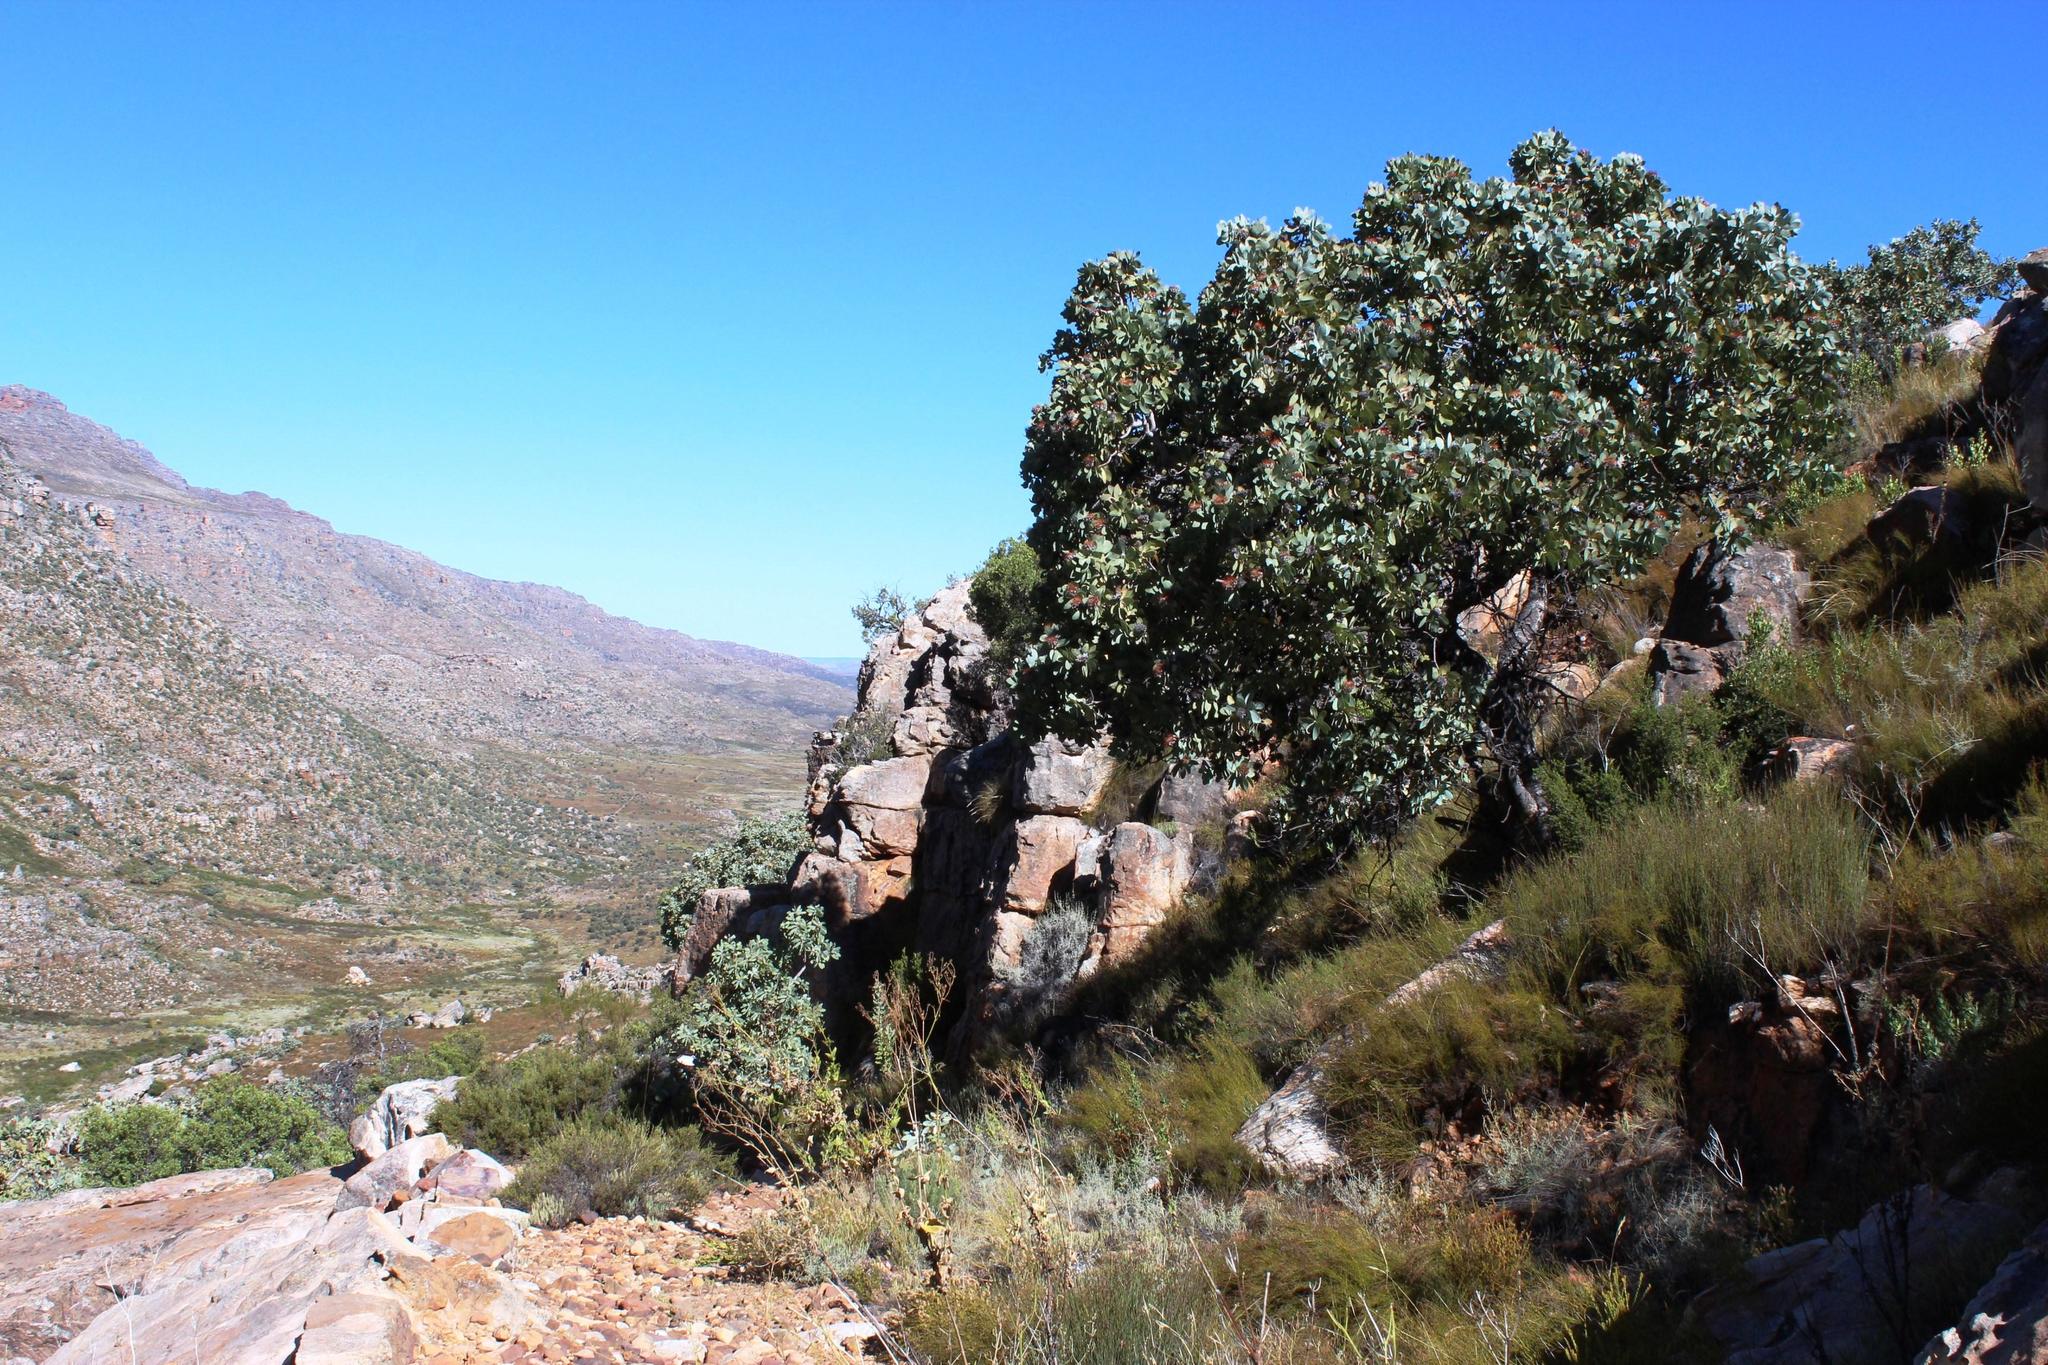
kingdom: Plantae
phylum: Tracheophyta
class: Magnoliopsida
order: Proteales
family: Proteaceae
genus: Protea
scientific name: Protea nitida
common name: Tree protea
